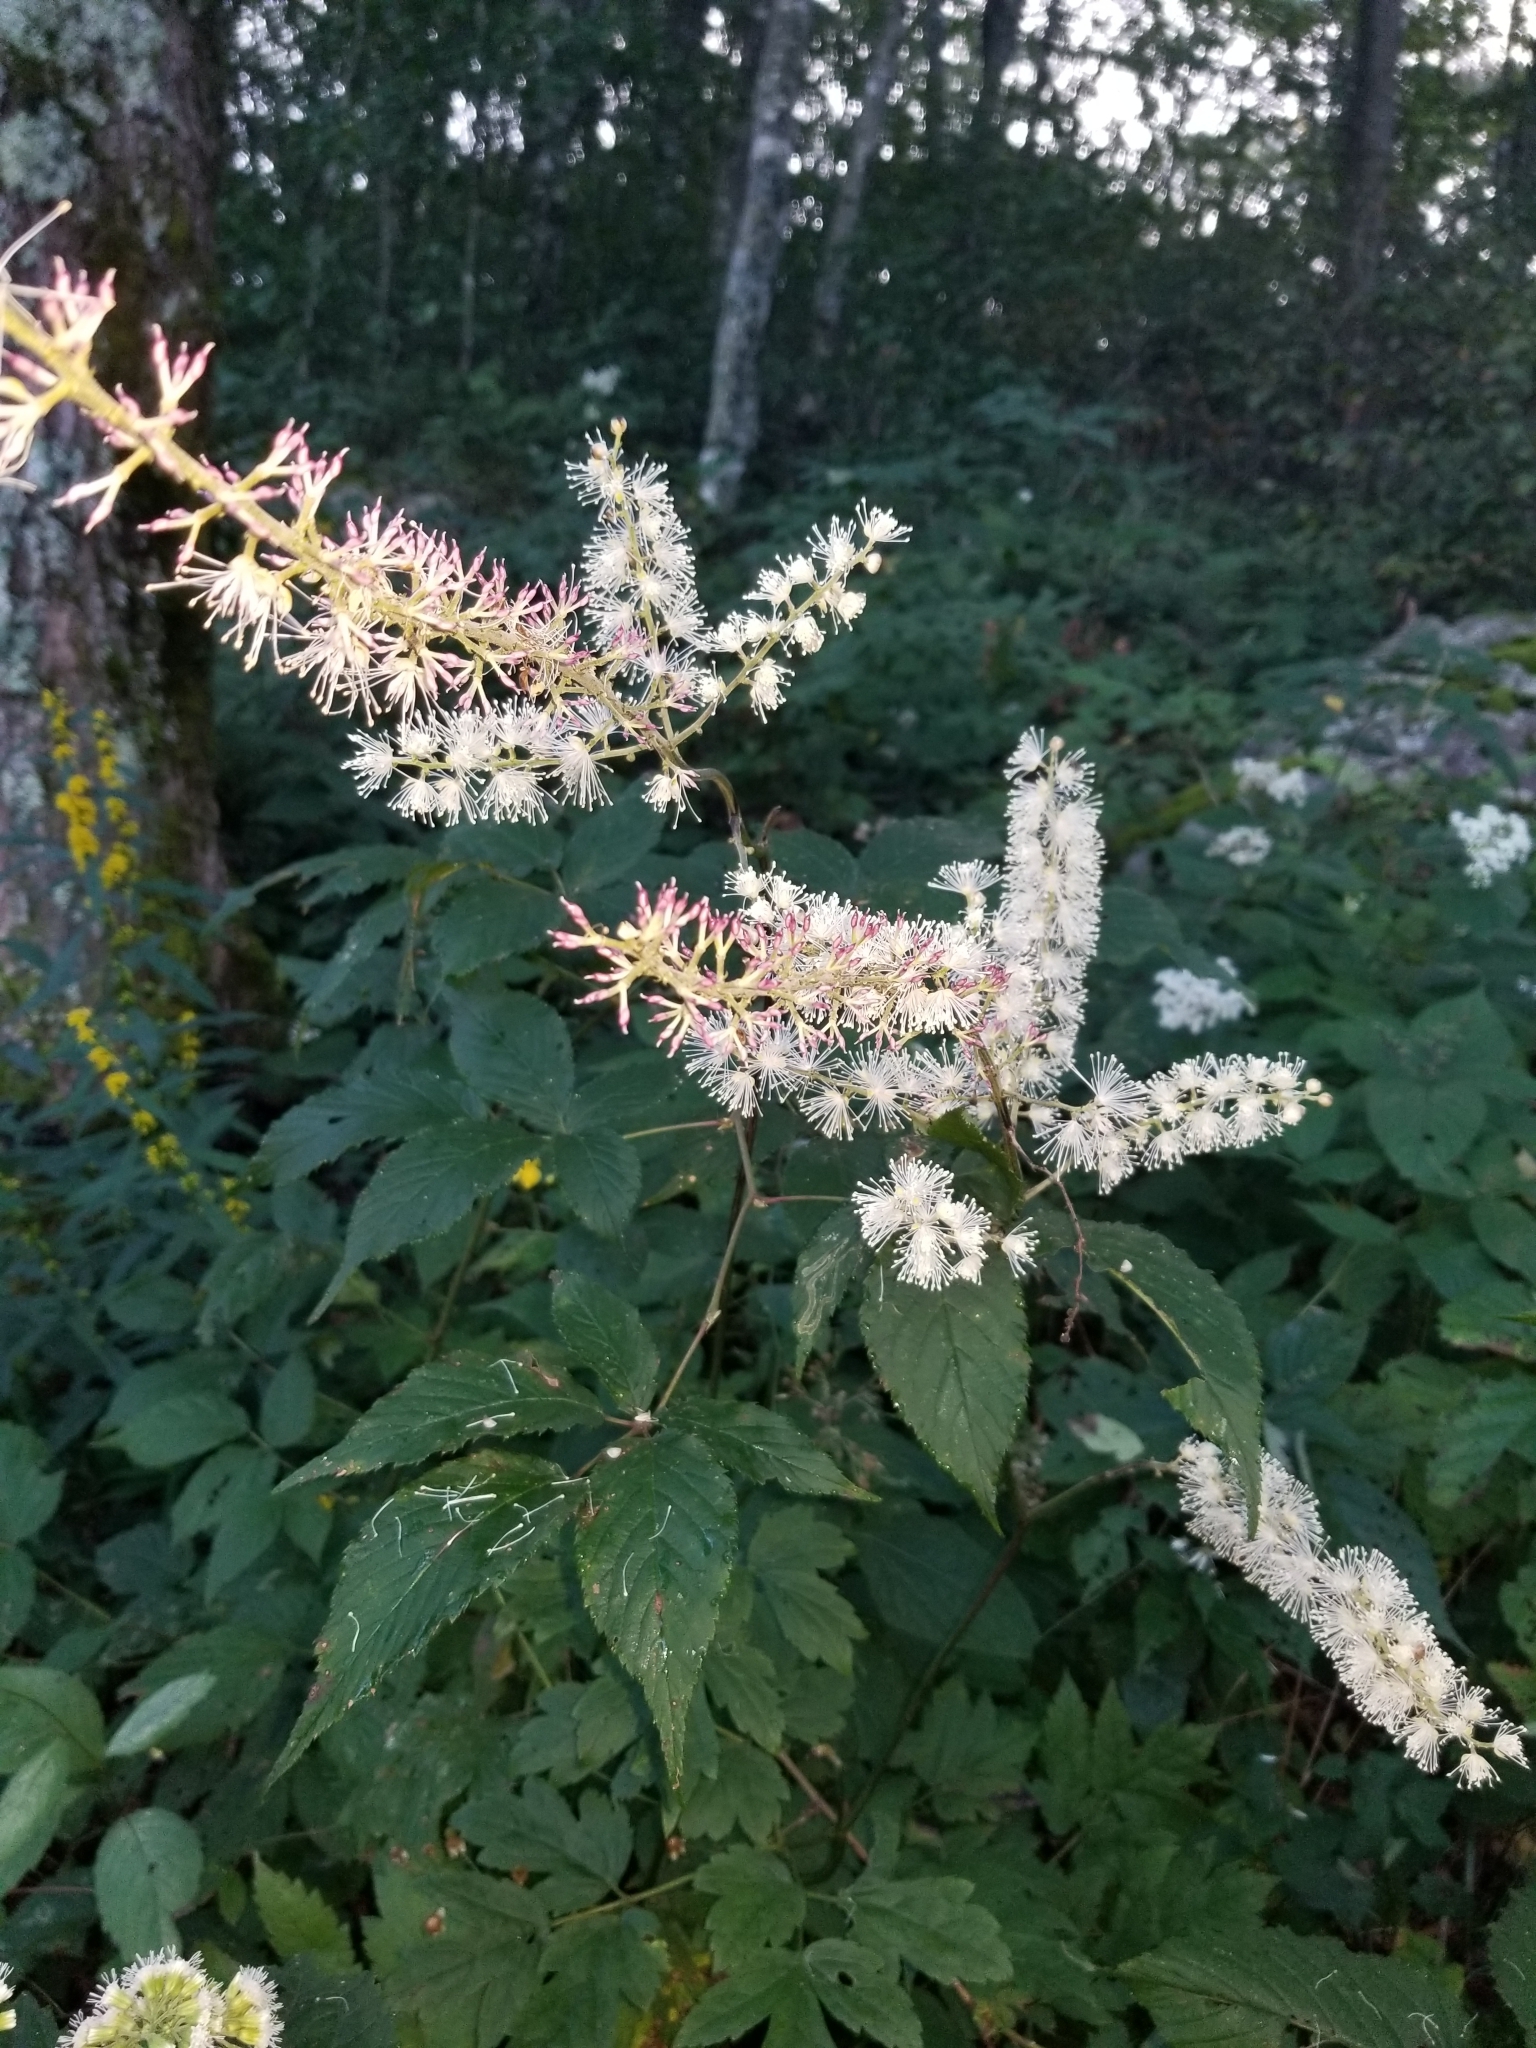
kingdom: Plantae
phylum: Tracheophyta
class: Magnoliopsida
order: Ranunculales
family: Ranunculaceae
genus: Actaea
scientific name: Actaea racemosa
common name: Black cohosh
